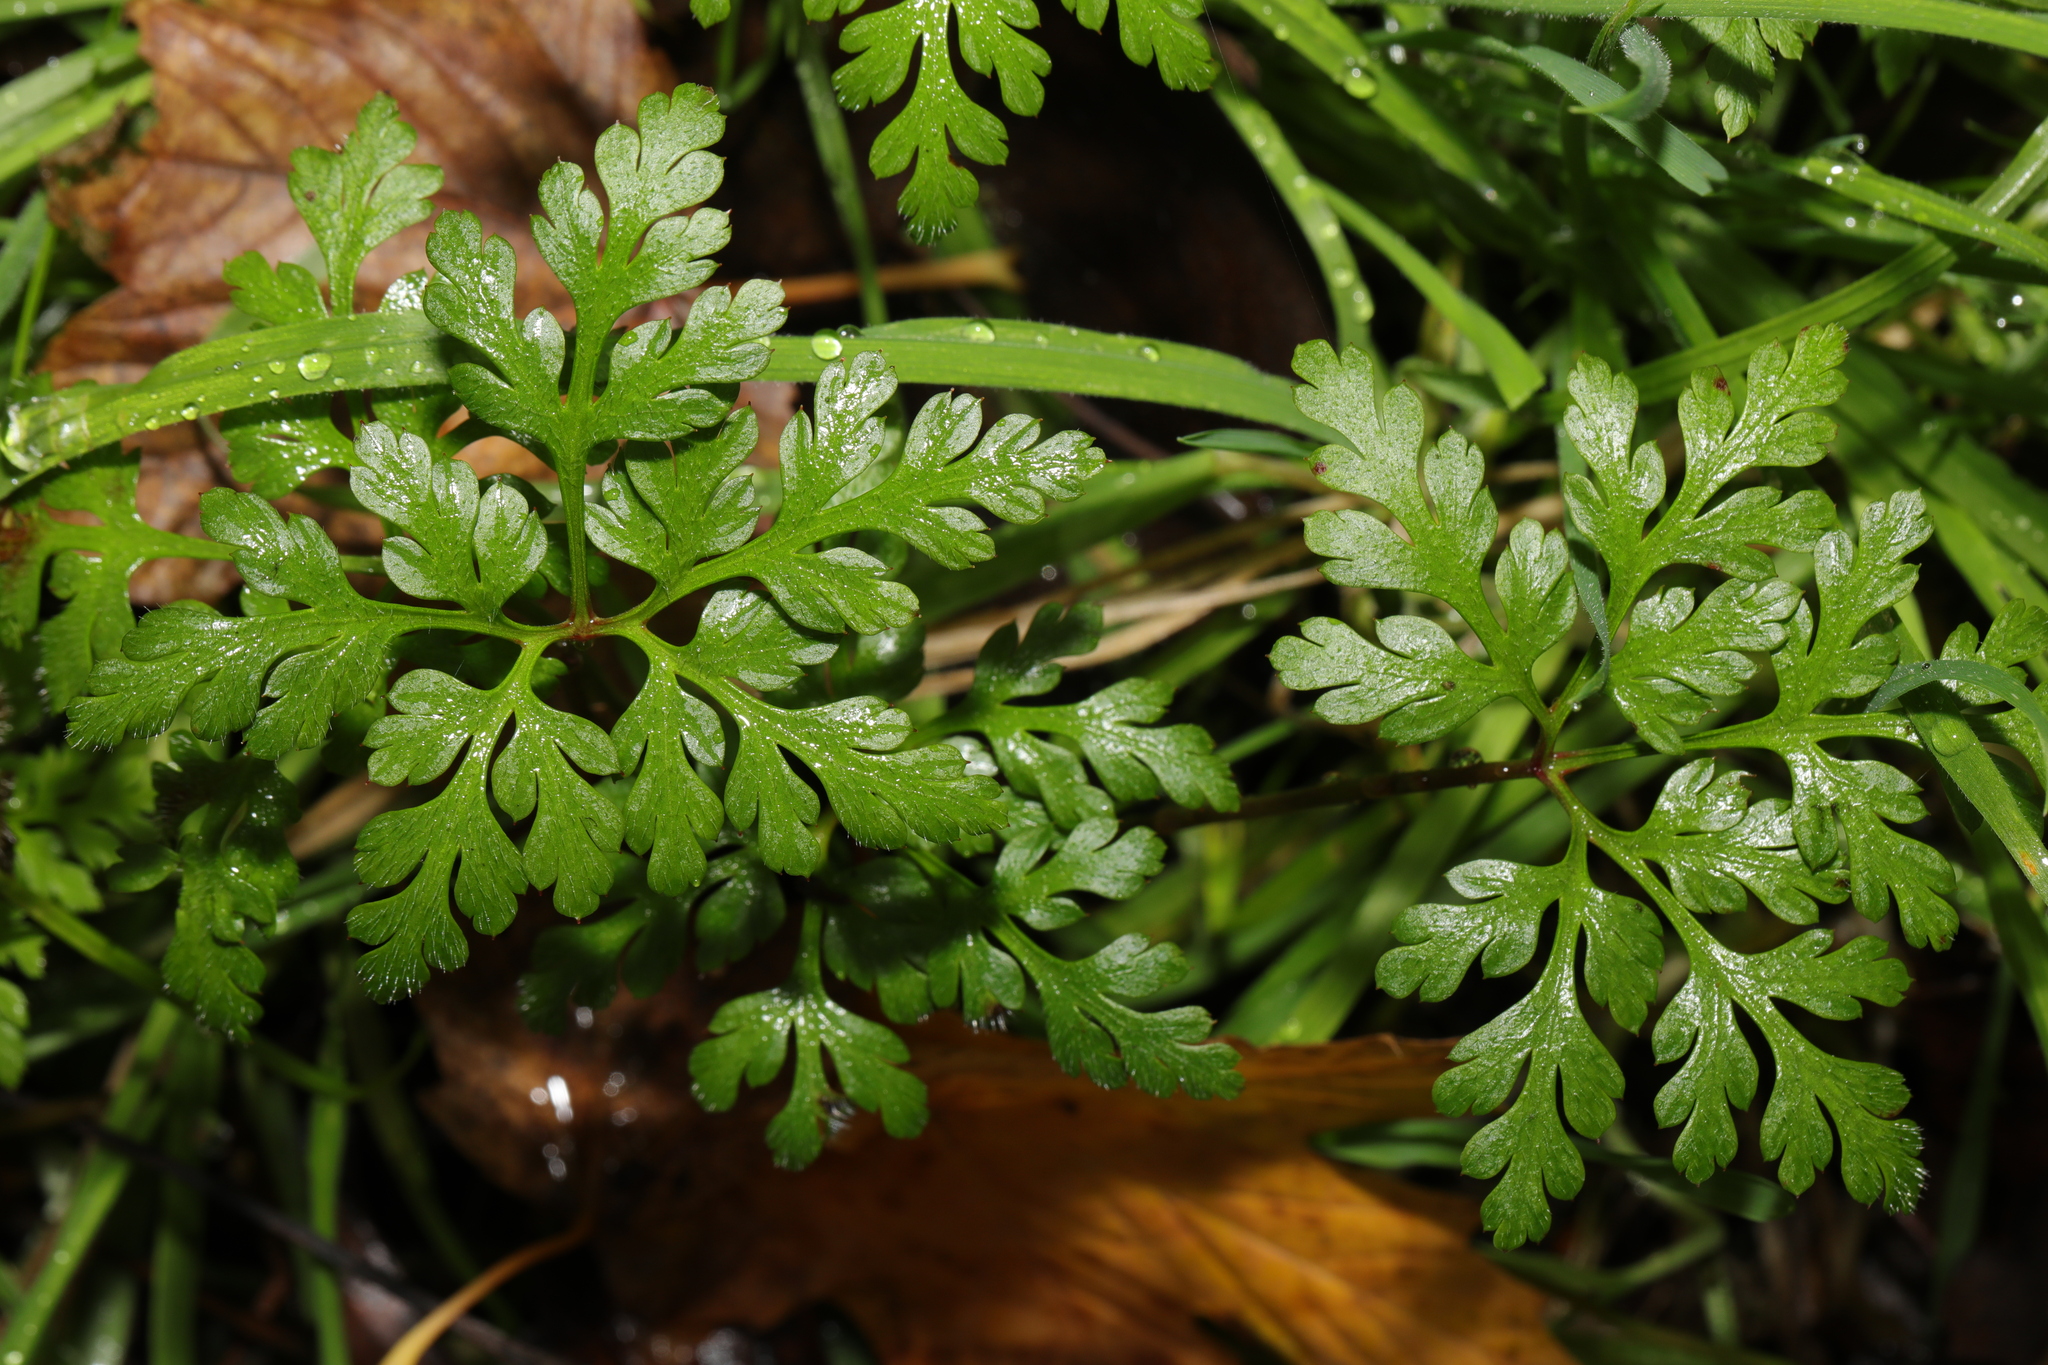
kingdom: Plantae
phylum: Tracheophyta
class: Magnoliopsida
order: Geraniales
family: Geraniaceae
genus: Geranium
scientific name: Geranium robertianum
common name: Herb-robert
